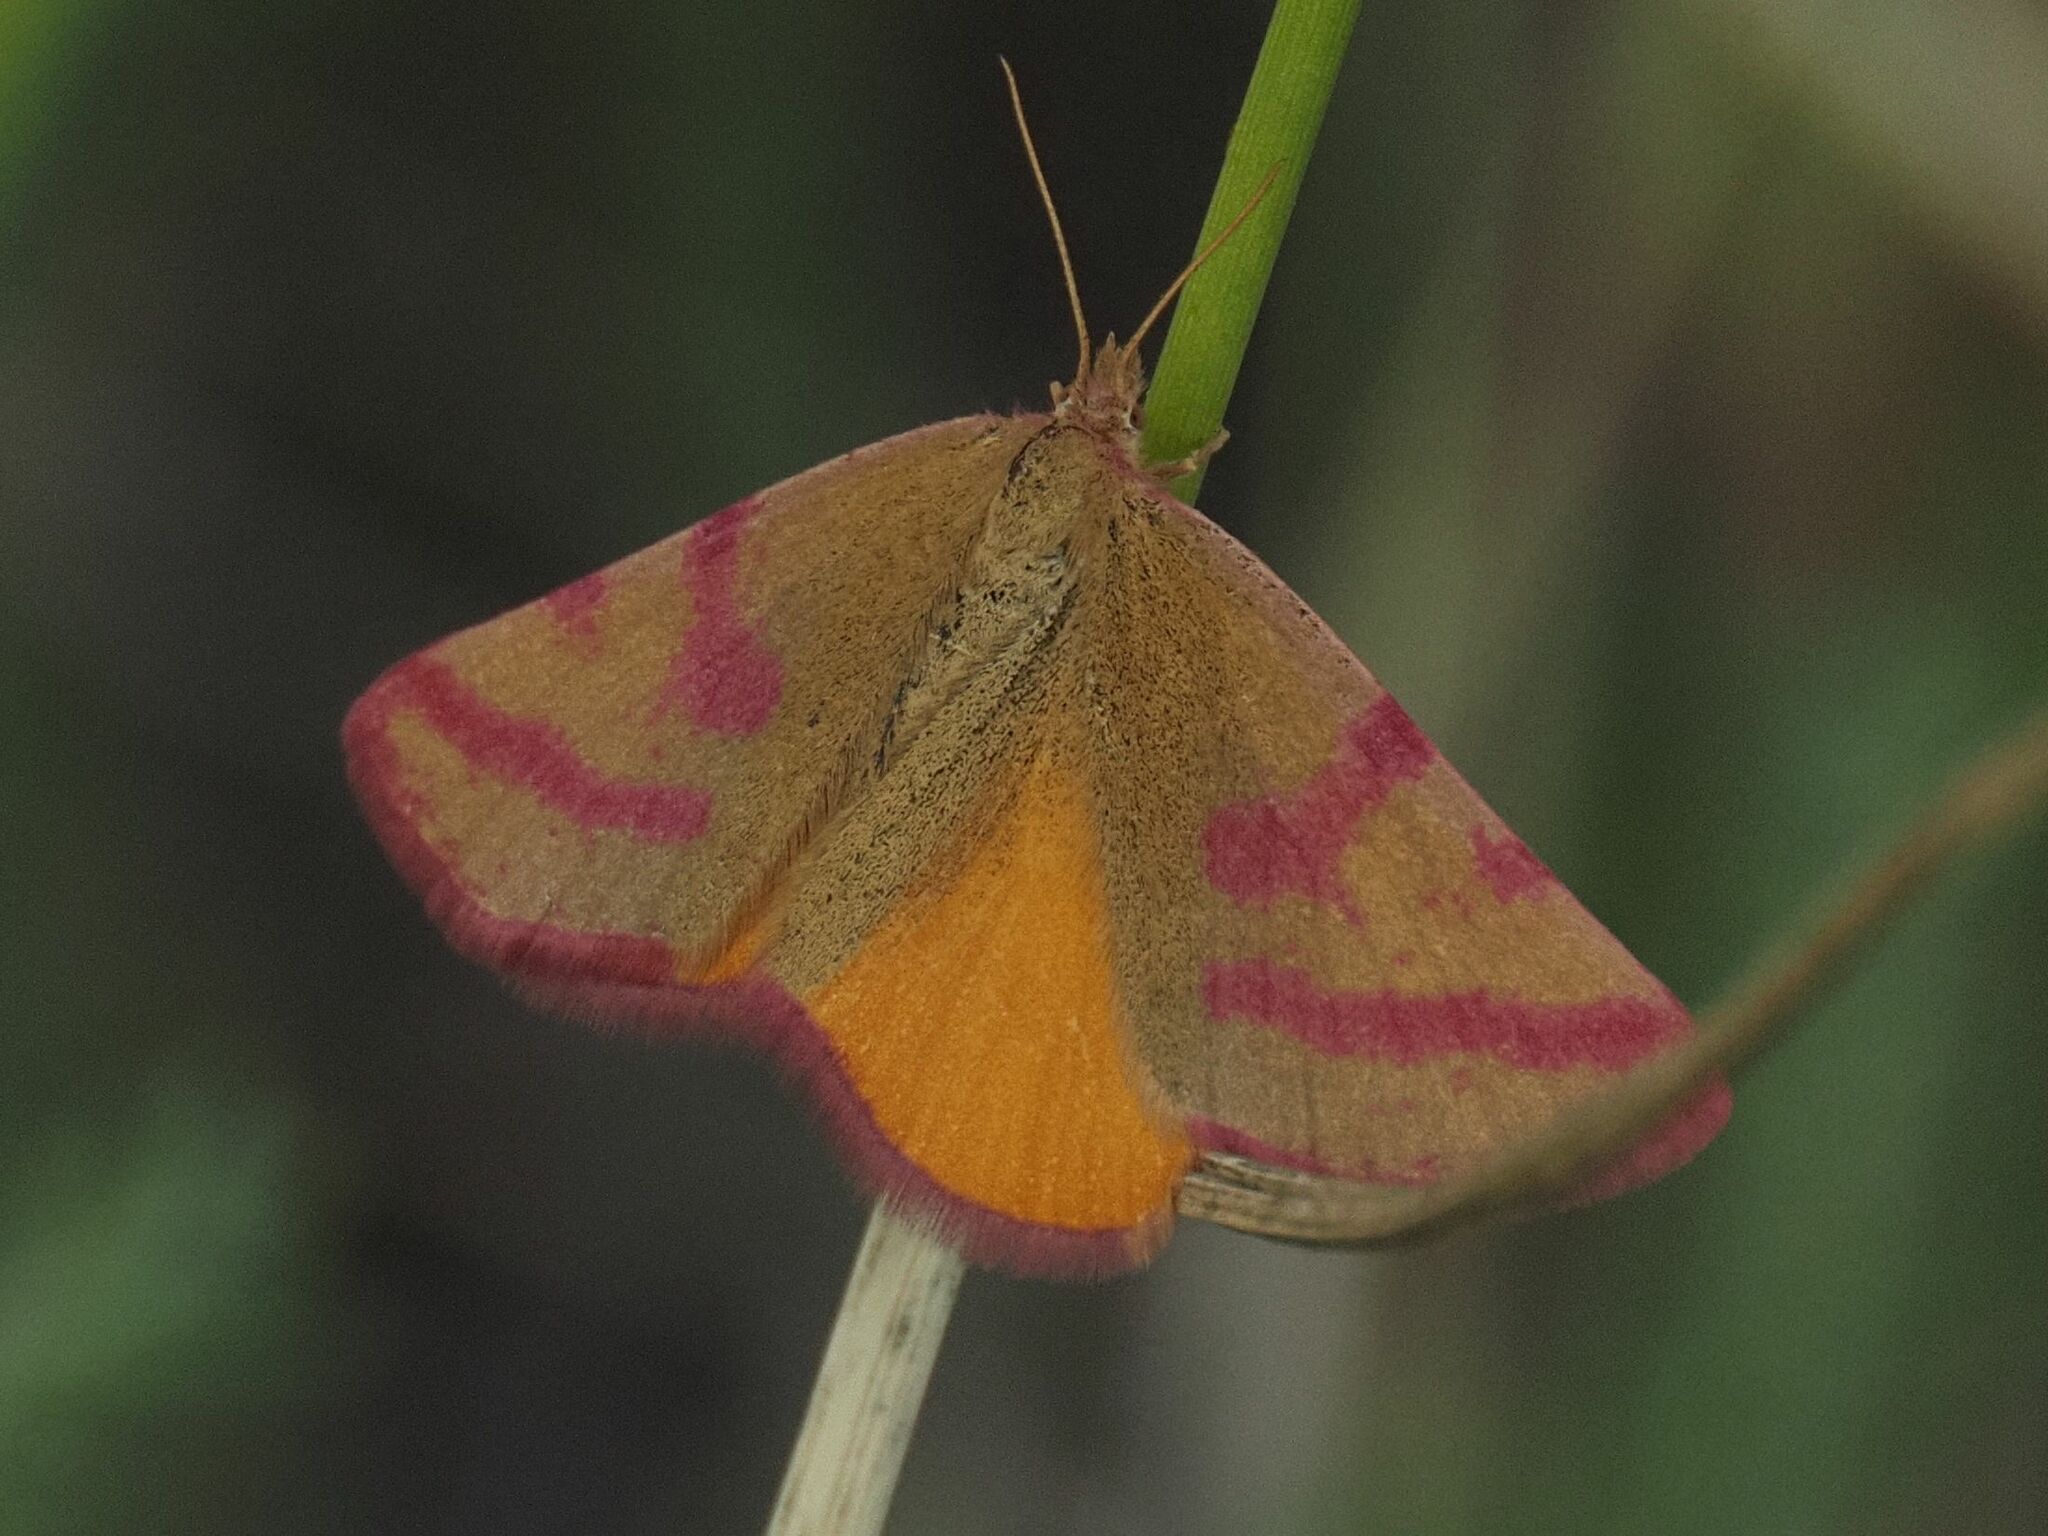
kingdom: Animalia
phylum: Arthropoda
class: Insecta
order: Lepidoptera
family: Geometridae
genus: Lythria
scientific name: Lythria purpuraria
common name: Purple-barred yellow
